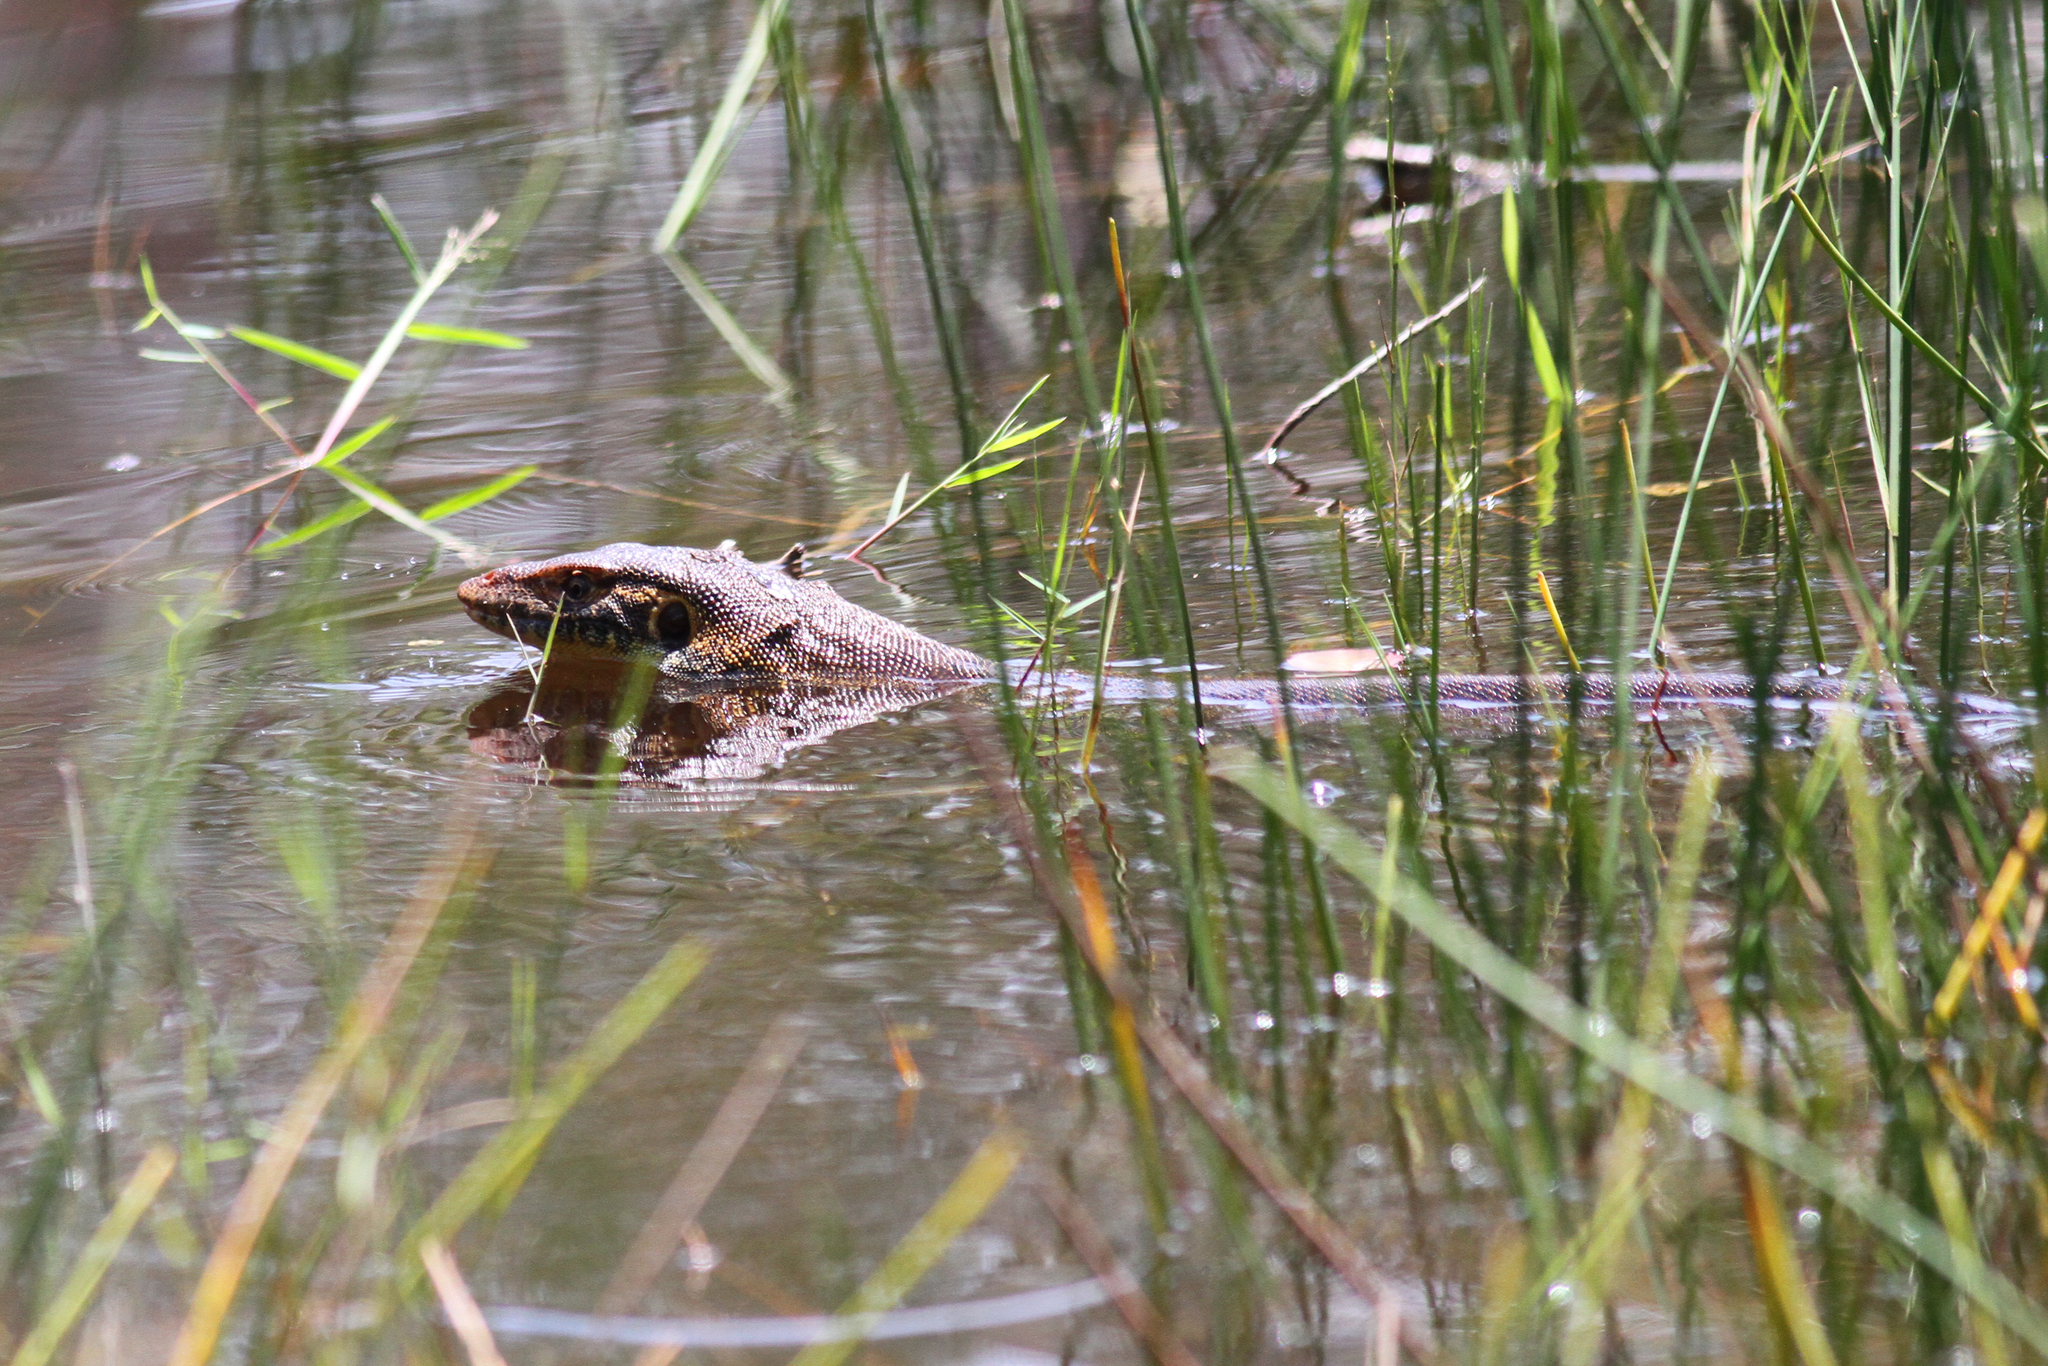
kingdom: Animalia
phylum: Chordata
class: Squamata
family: Varanidae
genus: Varanus
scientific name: Varanus mertensi
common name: Mertens's water monitor
